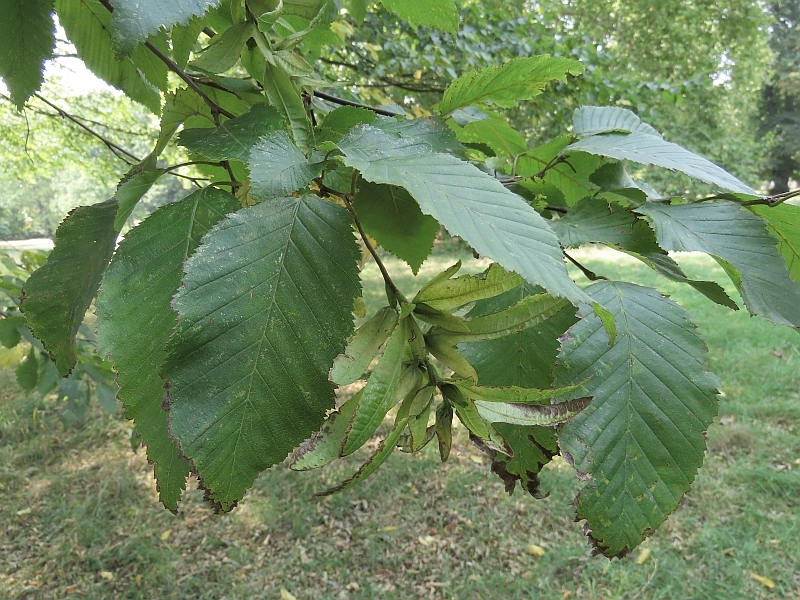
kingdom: Plantae
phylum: Tracheophyta
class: Magnoliopsida
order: Fagales
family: Betulaceae
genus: Carpinus
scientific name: Carpinus betulus
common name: Hornbeam
